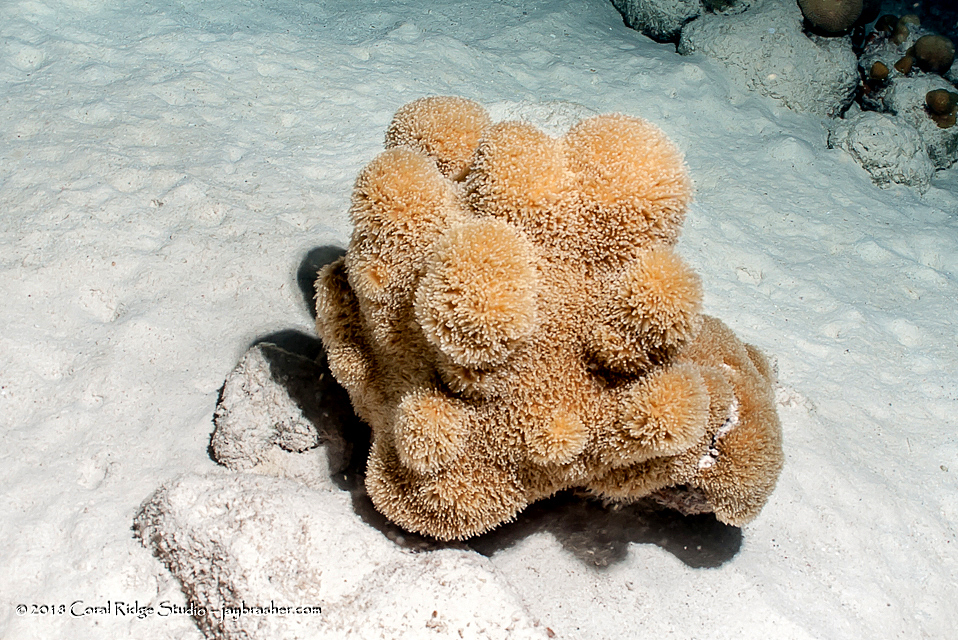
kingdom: Animalia
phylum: Cnidaria
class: Anthozoa
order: Scleractinia
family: Meandrinidae
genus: Dendrogyra
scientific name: Dendrogyra cylindrus
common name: Pillar coral
